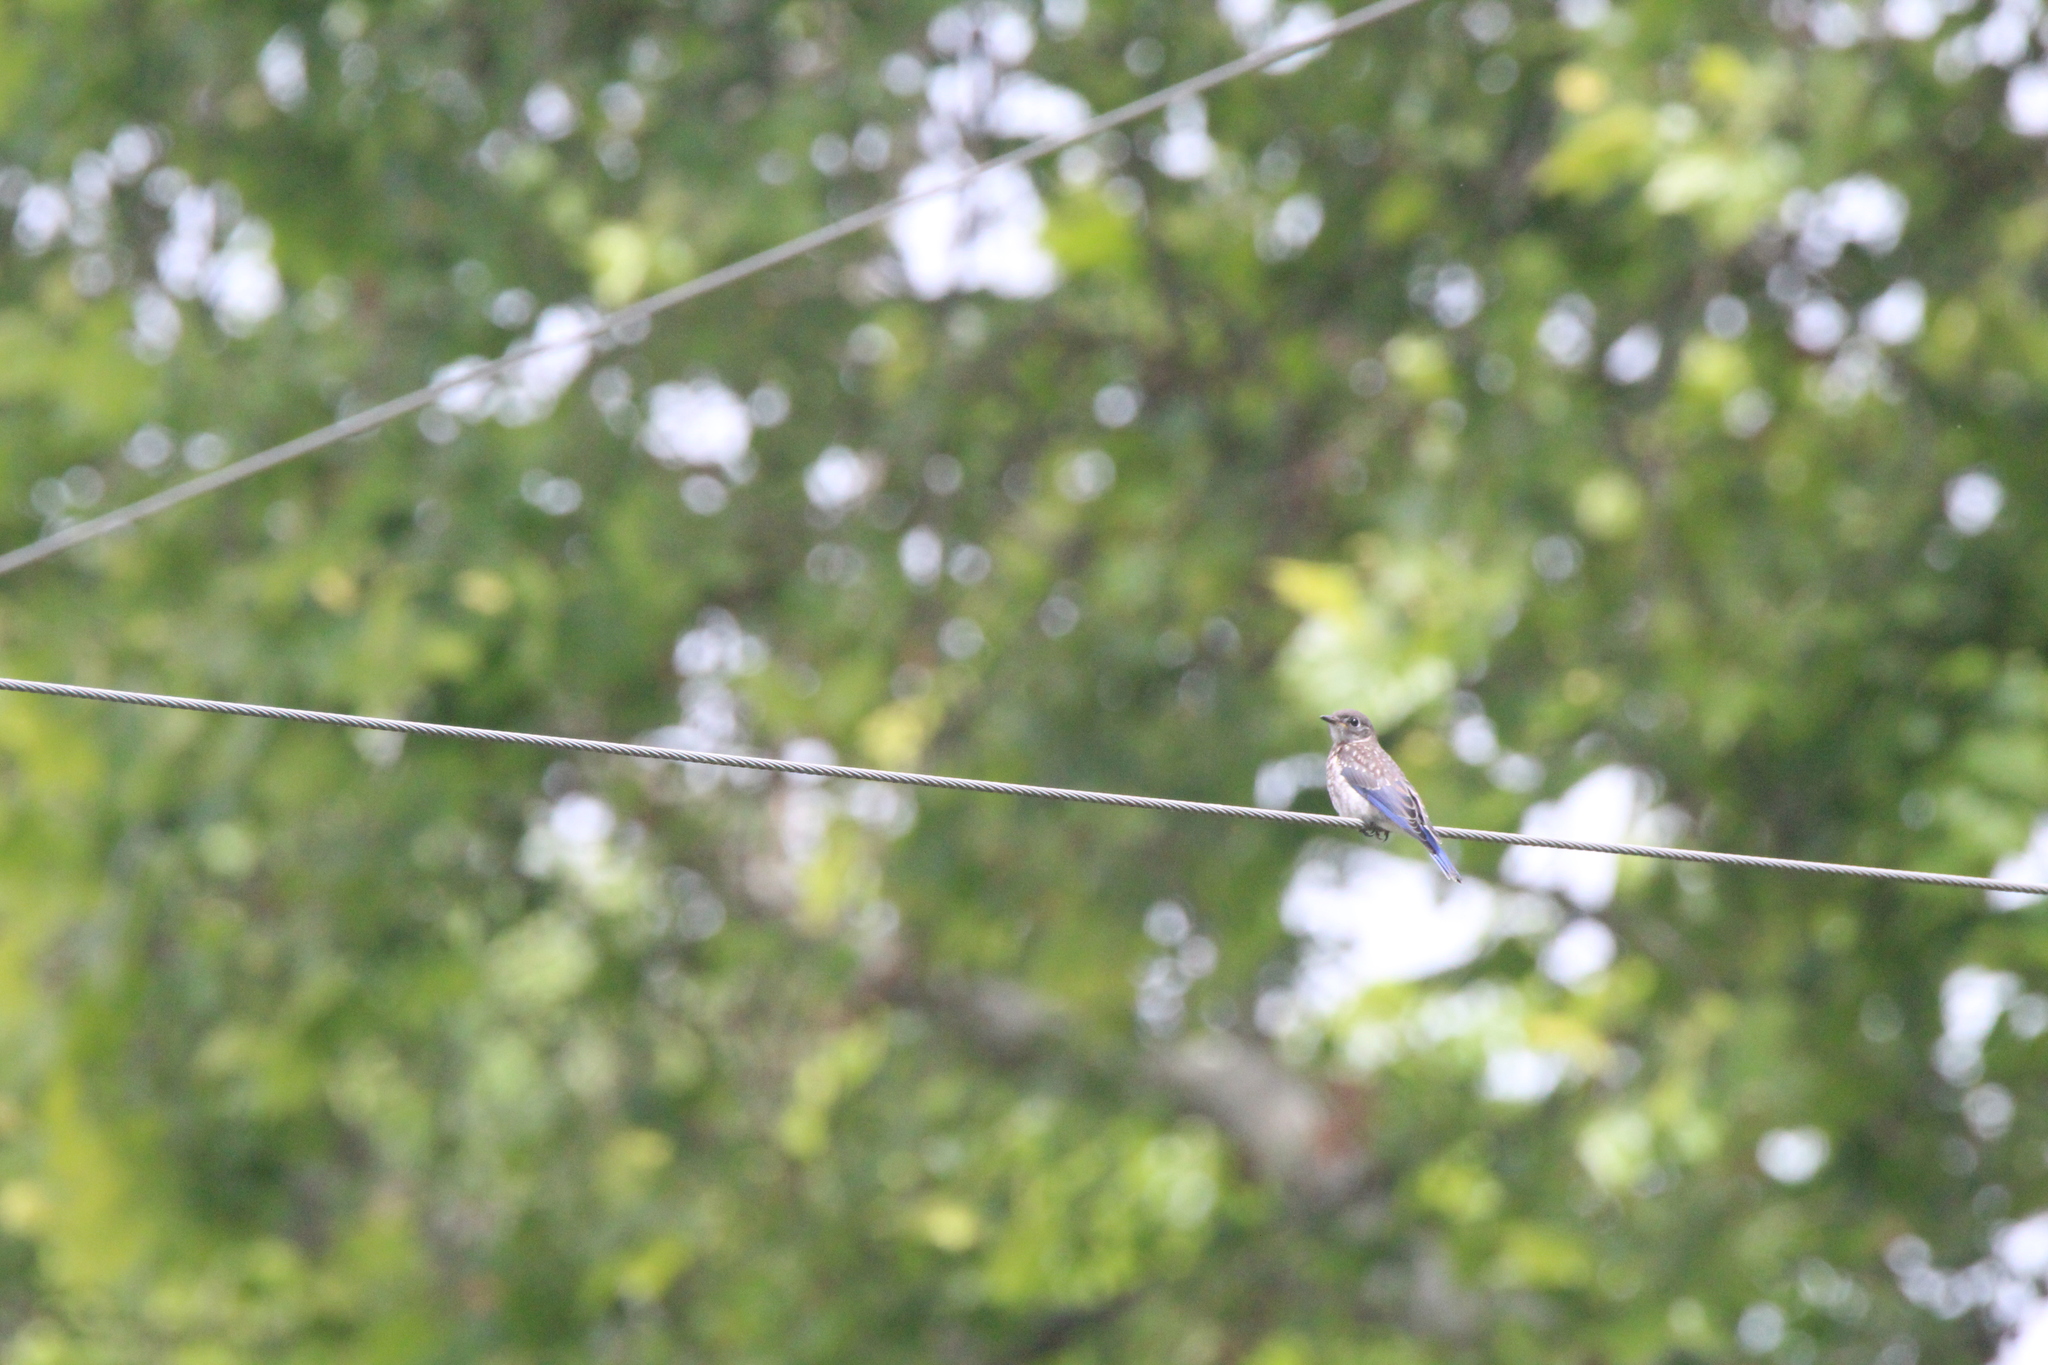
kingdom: Animalia
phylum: Chordata
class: Aves
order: Passeriformes
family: Turdidae
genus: Sialia
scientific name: Sialia sialis
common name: Eastern bluebird
